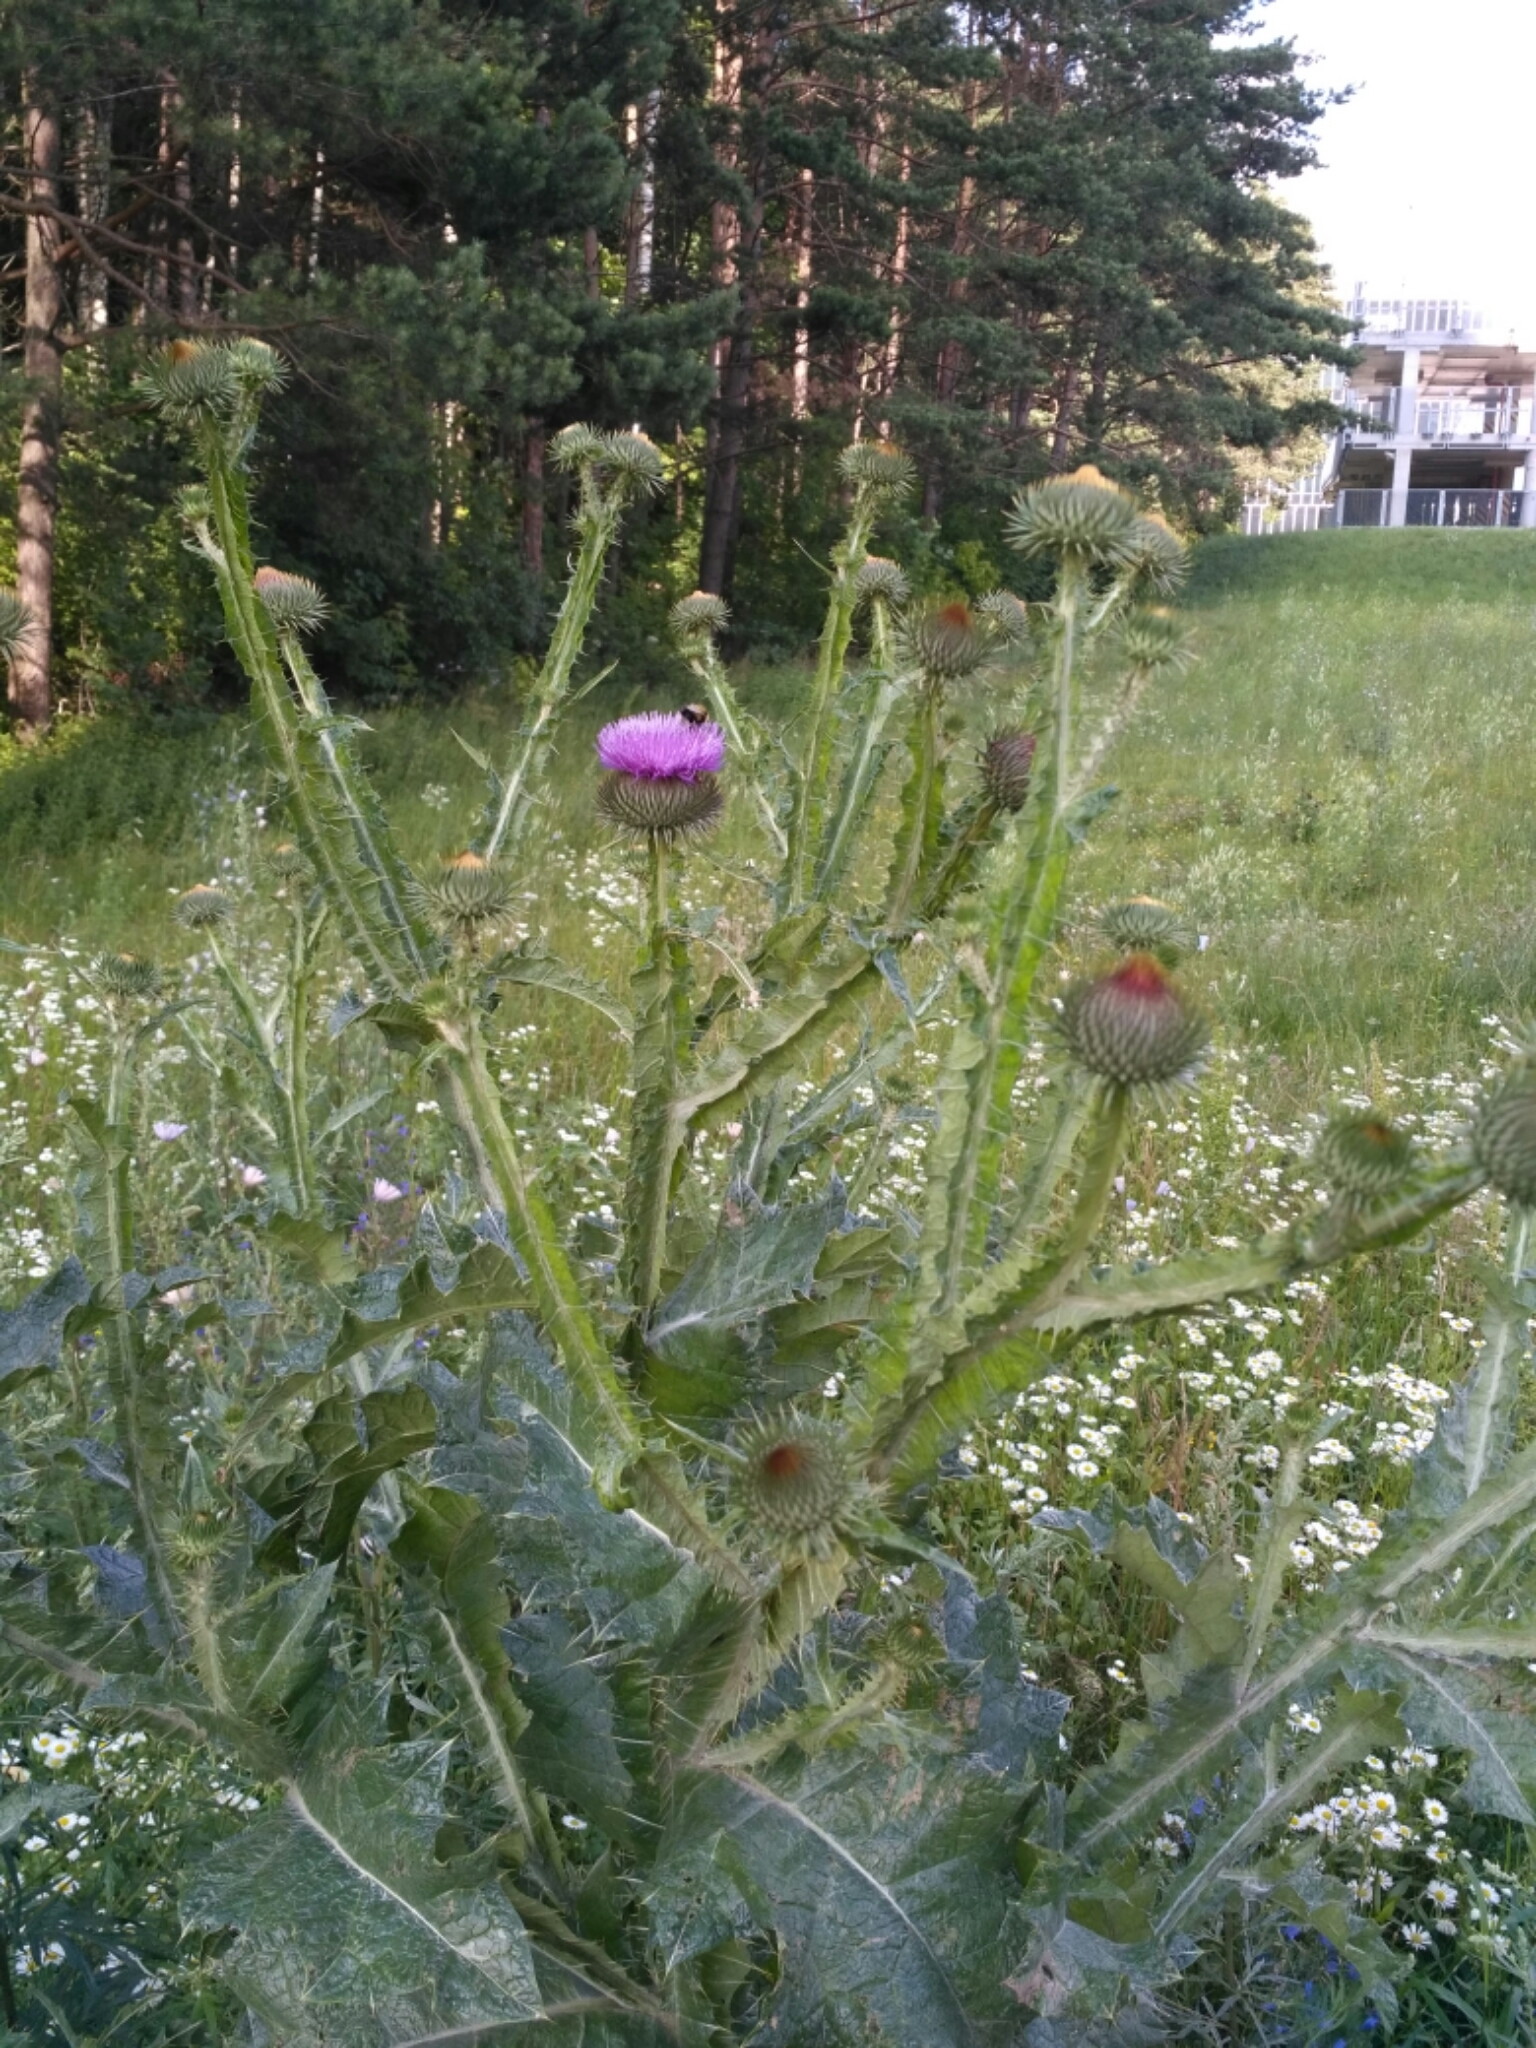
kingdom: Plantae
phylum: Tracheophyta
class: Magnoliopsida
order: Asterales
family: Asteraceae
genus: Onopordum
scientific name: Onopordum acanthium
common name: Scotch thistle
